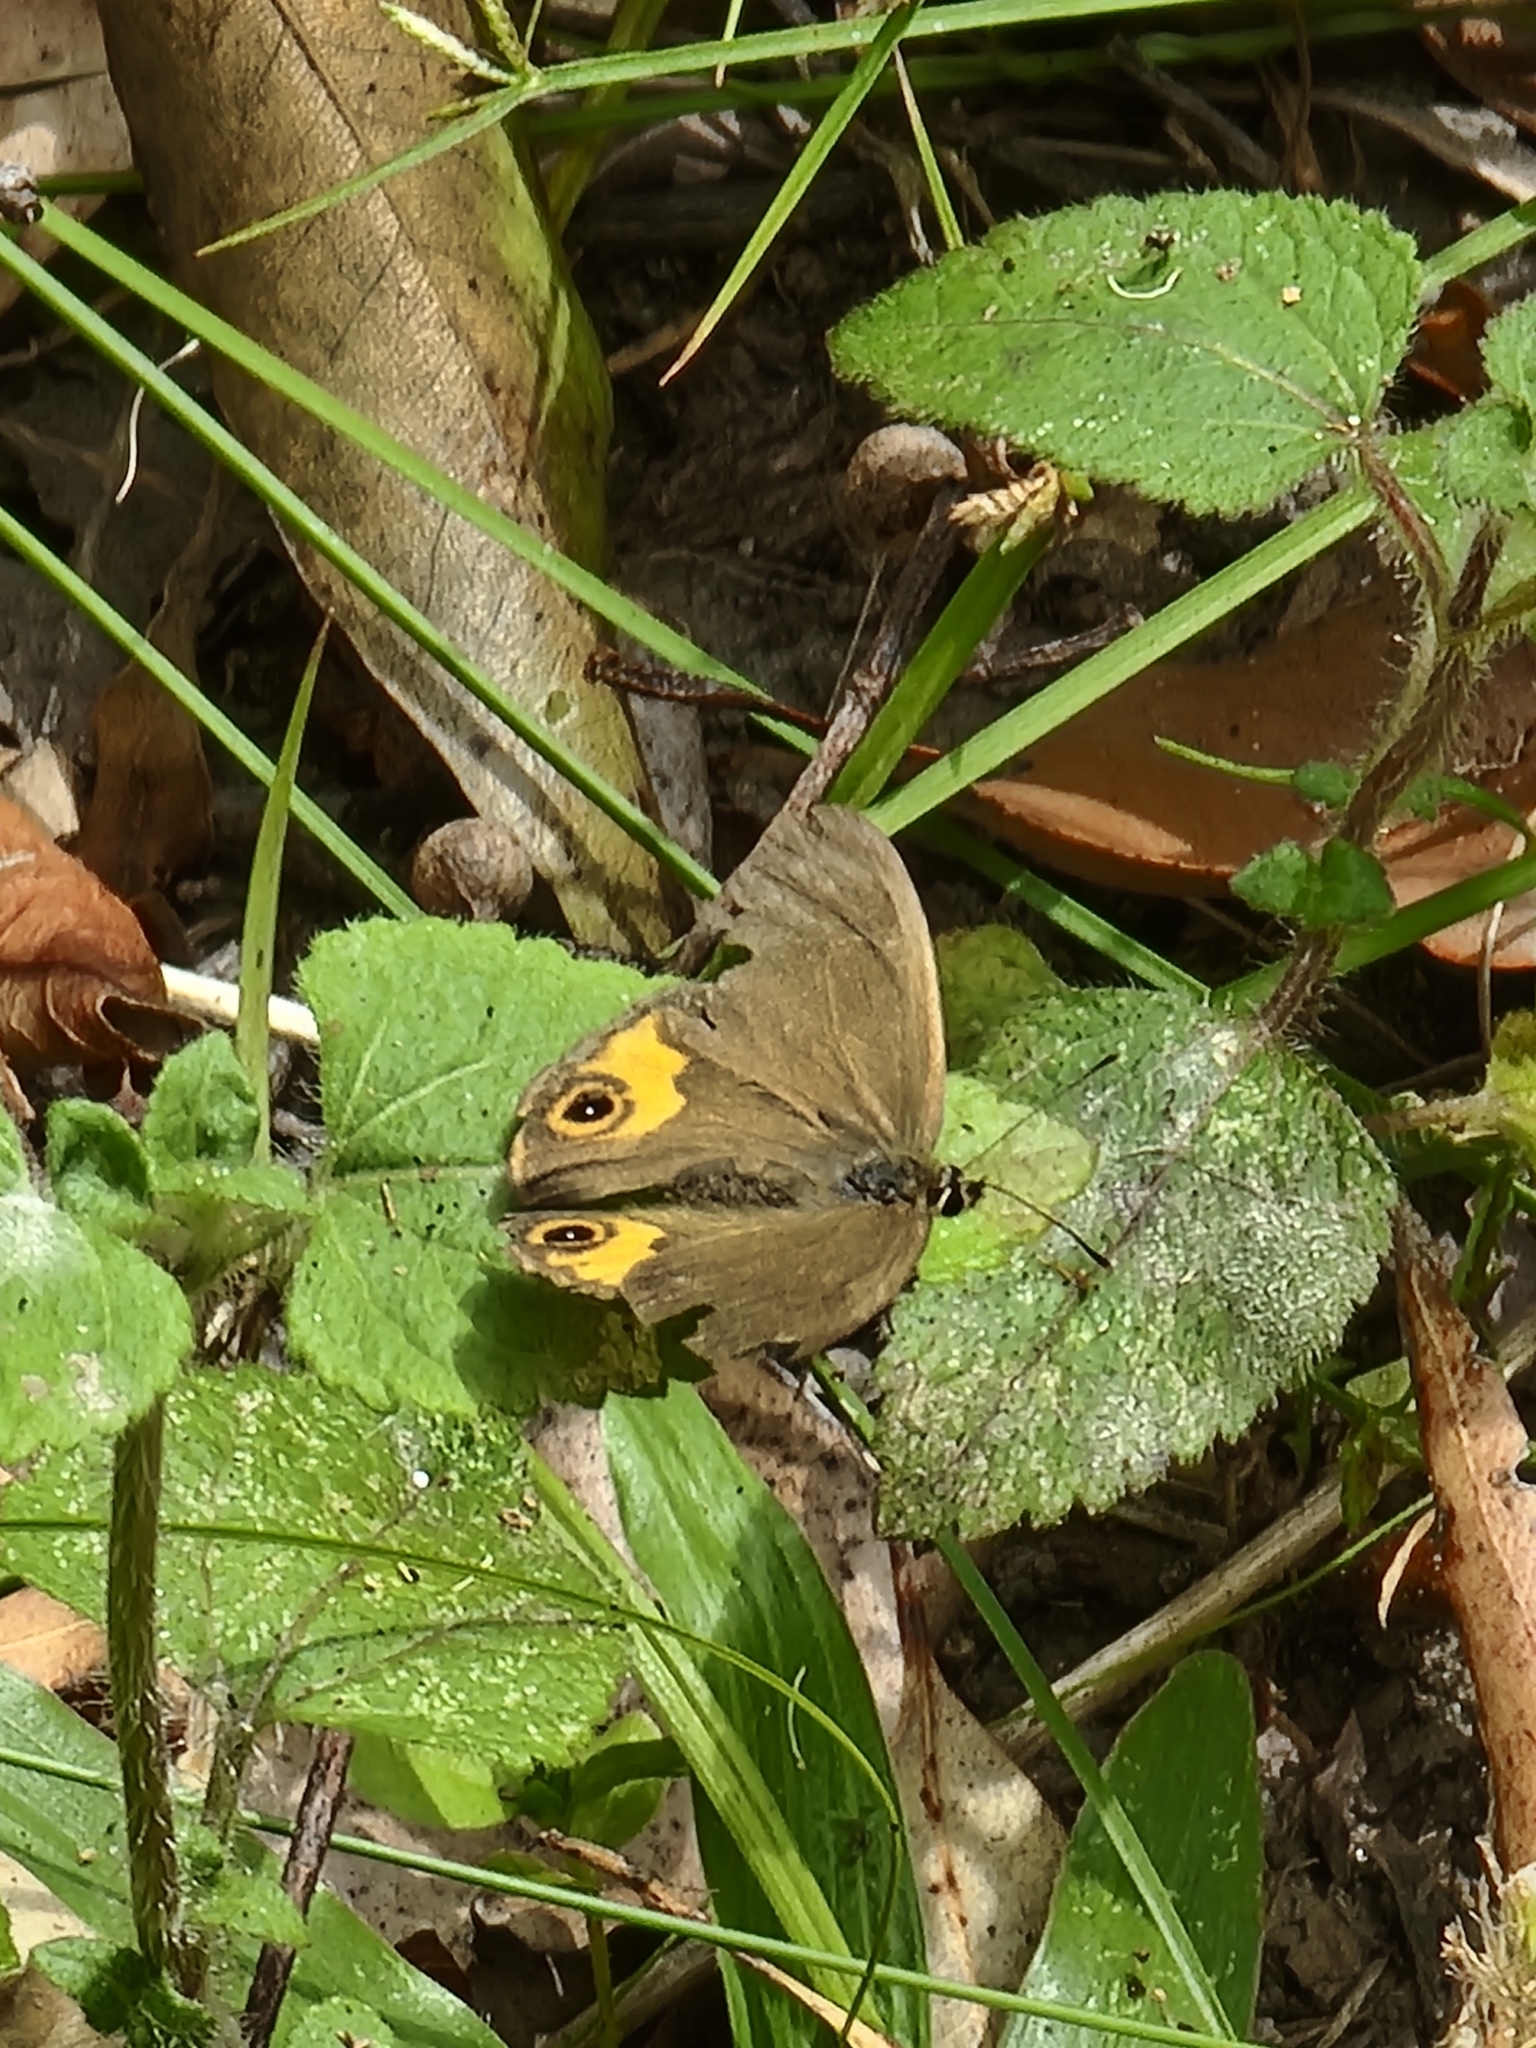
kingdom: Animalia
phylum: Arthropoda
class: Insecta
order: Lepidoptera
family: Nymphalidae
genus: Hypocysta
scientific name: Hypocysta metirius
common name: Brown ringlet
